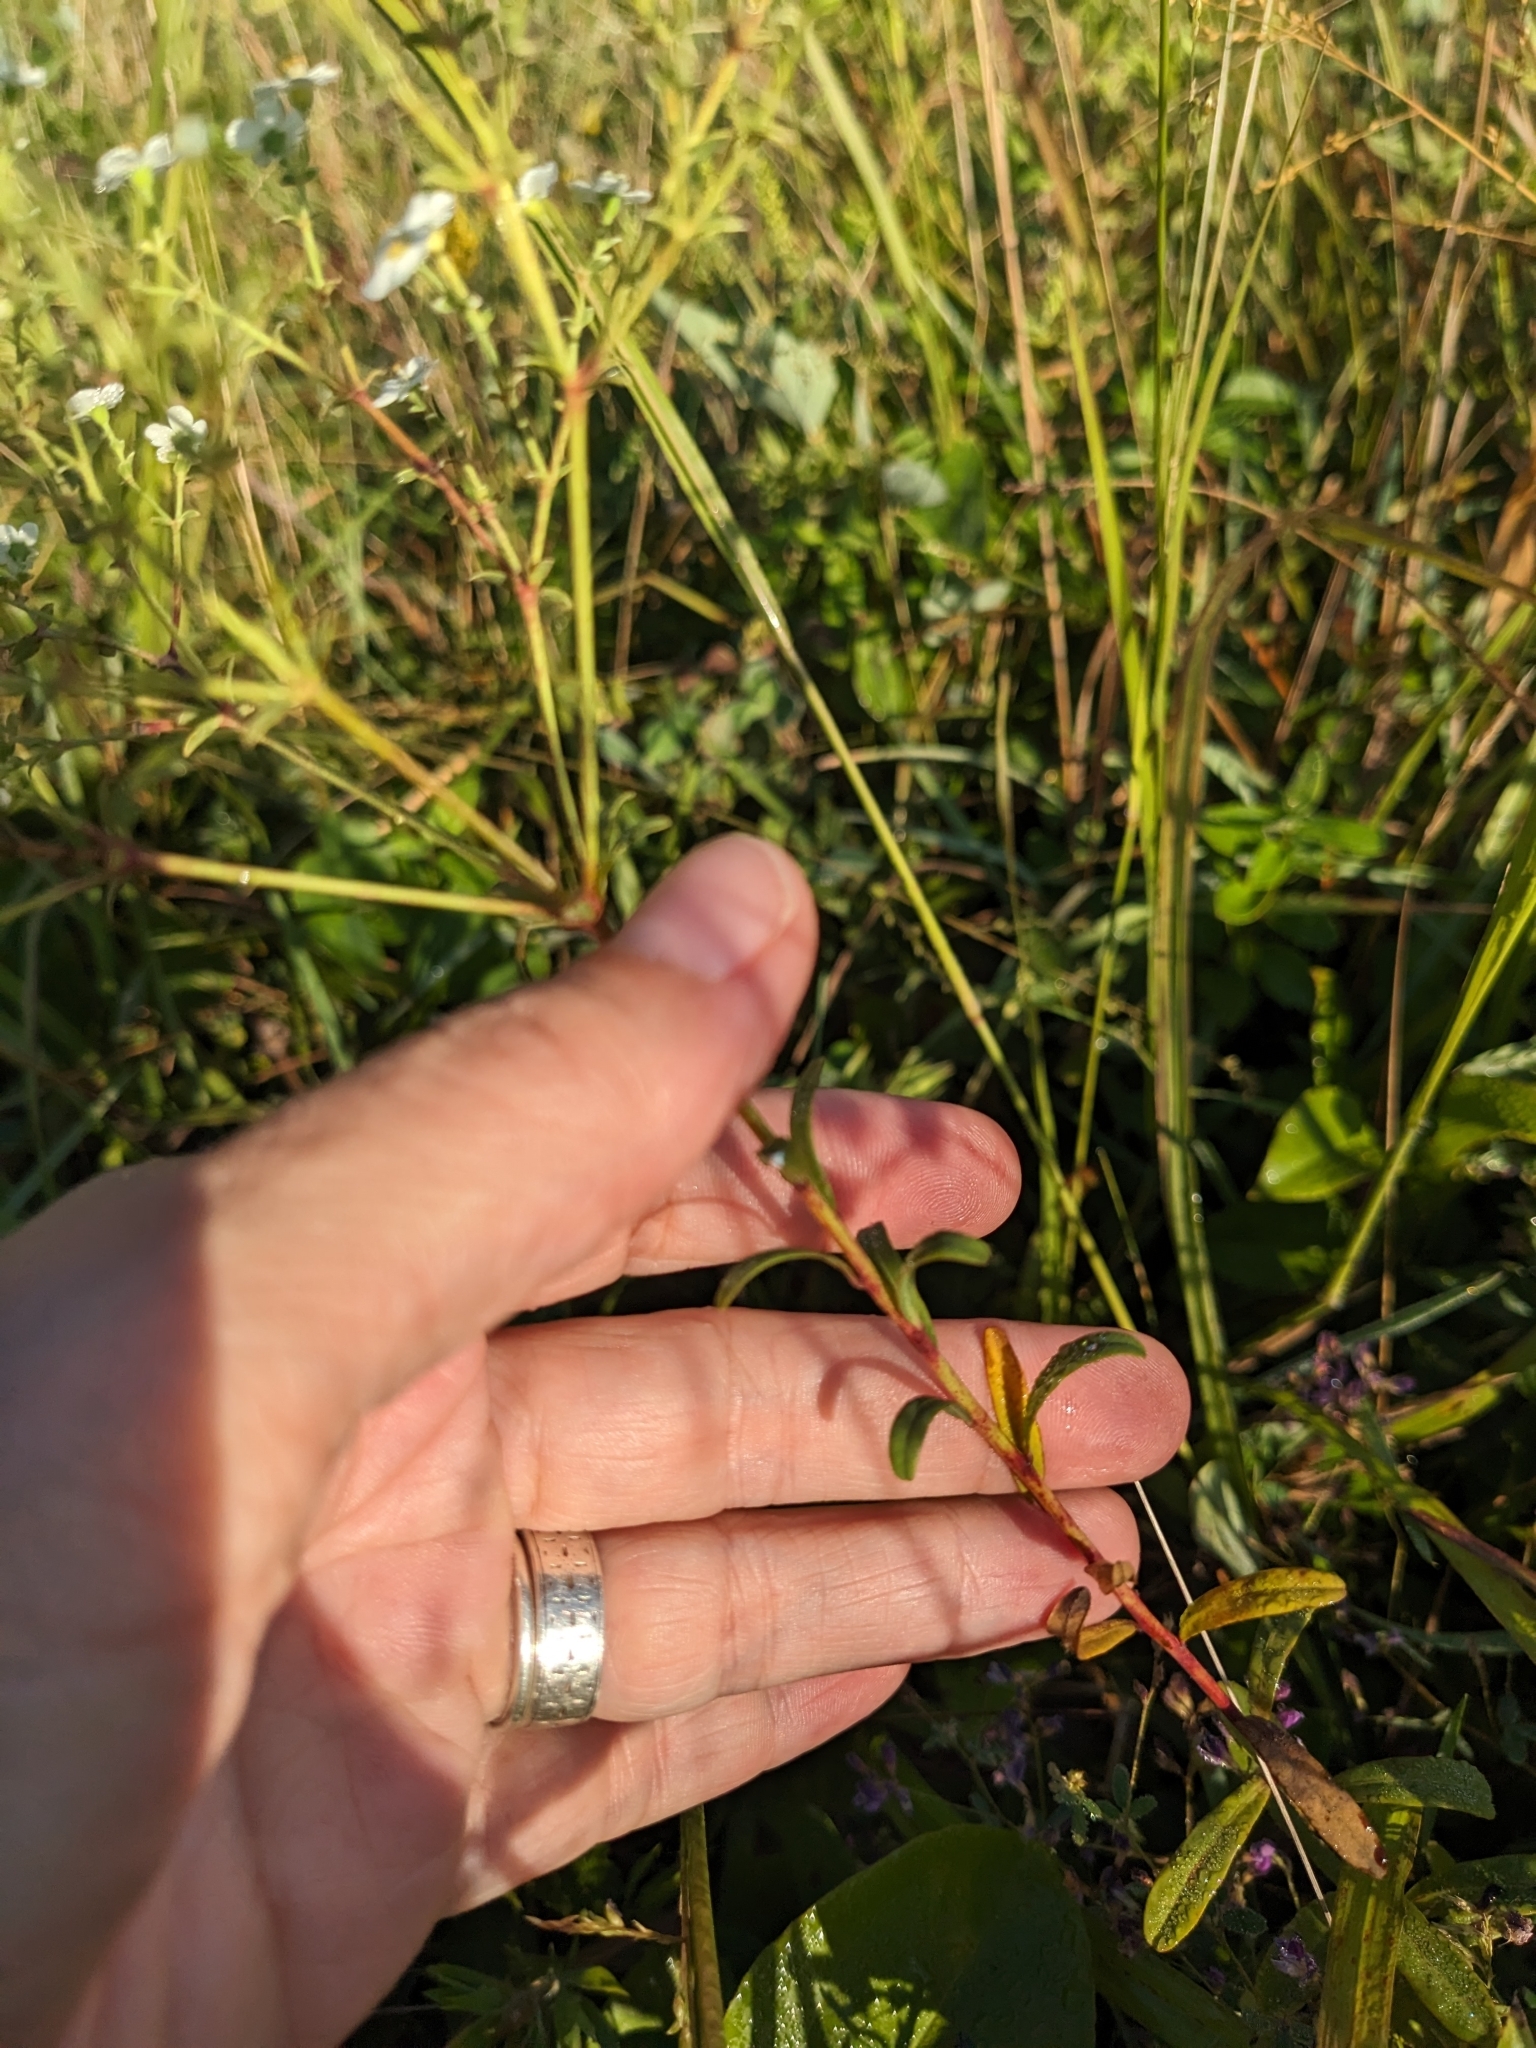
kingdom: Plantae
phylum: Tracheophyta
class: Magnoliopsida
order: Malpighiales
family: Euphorbiaceae
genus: Euphorbia
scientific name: Euphorbia corollata
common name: Flowering spurge
